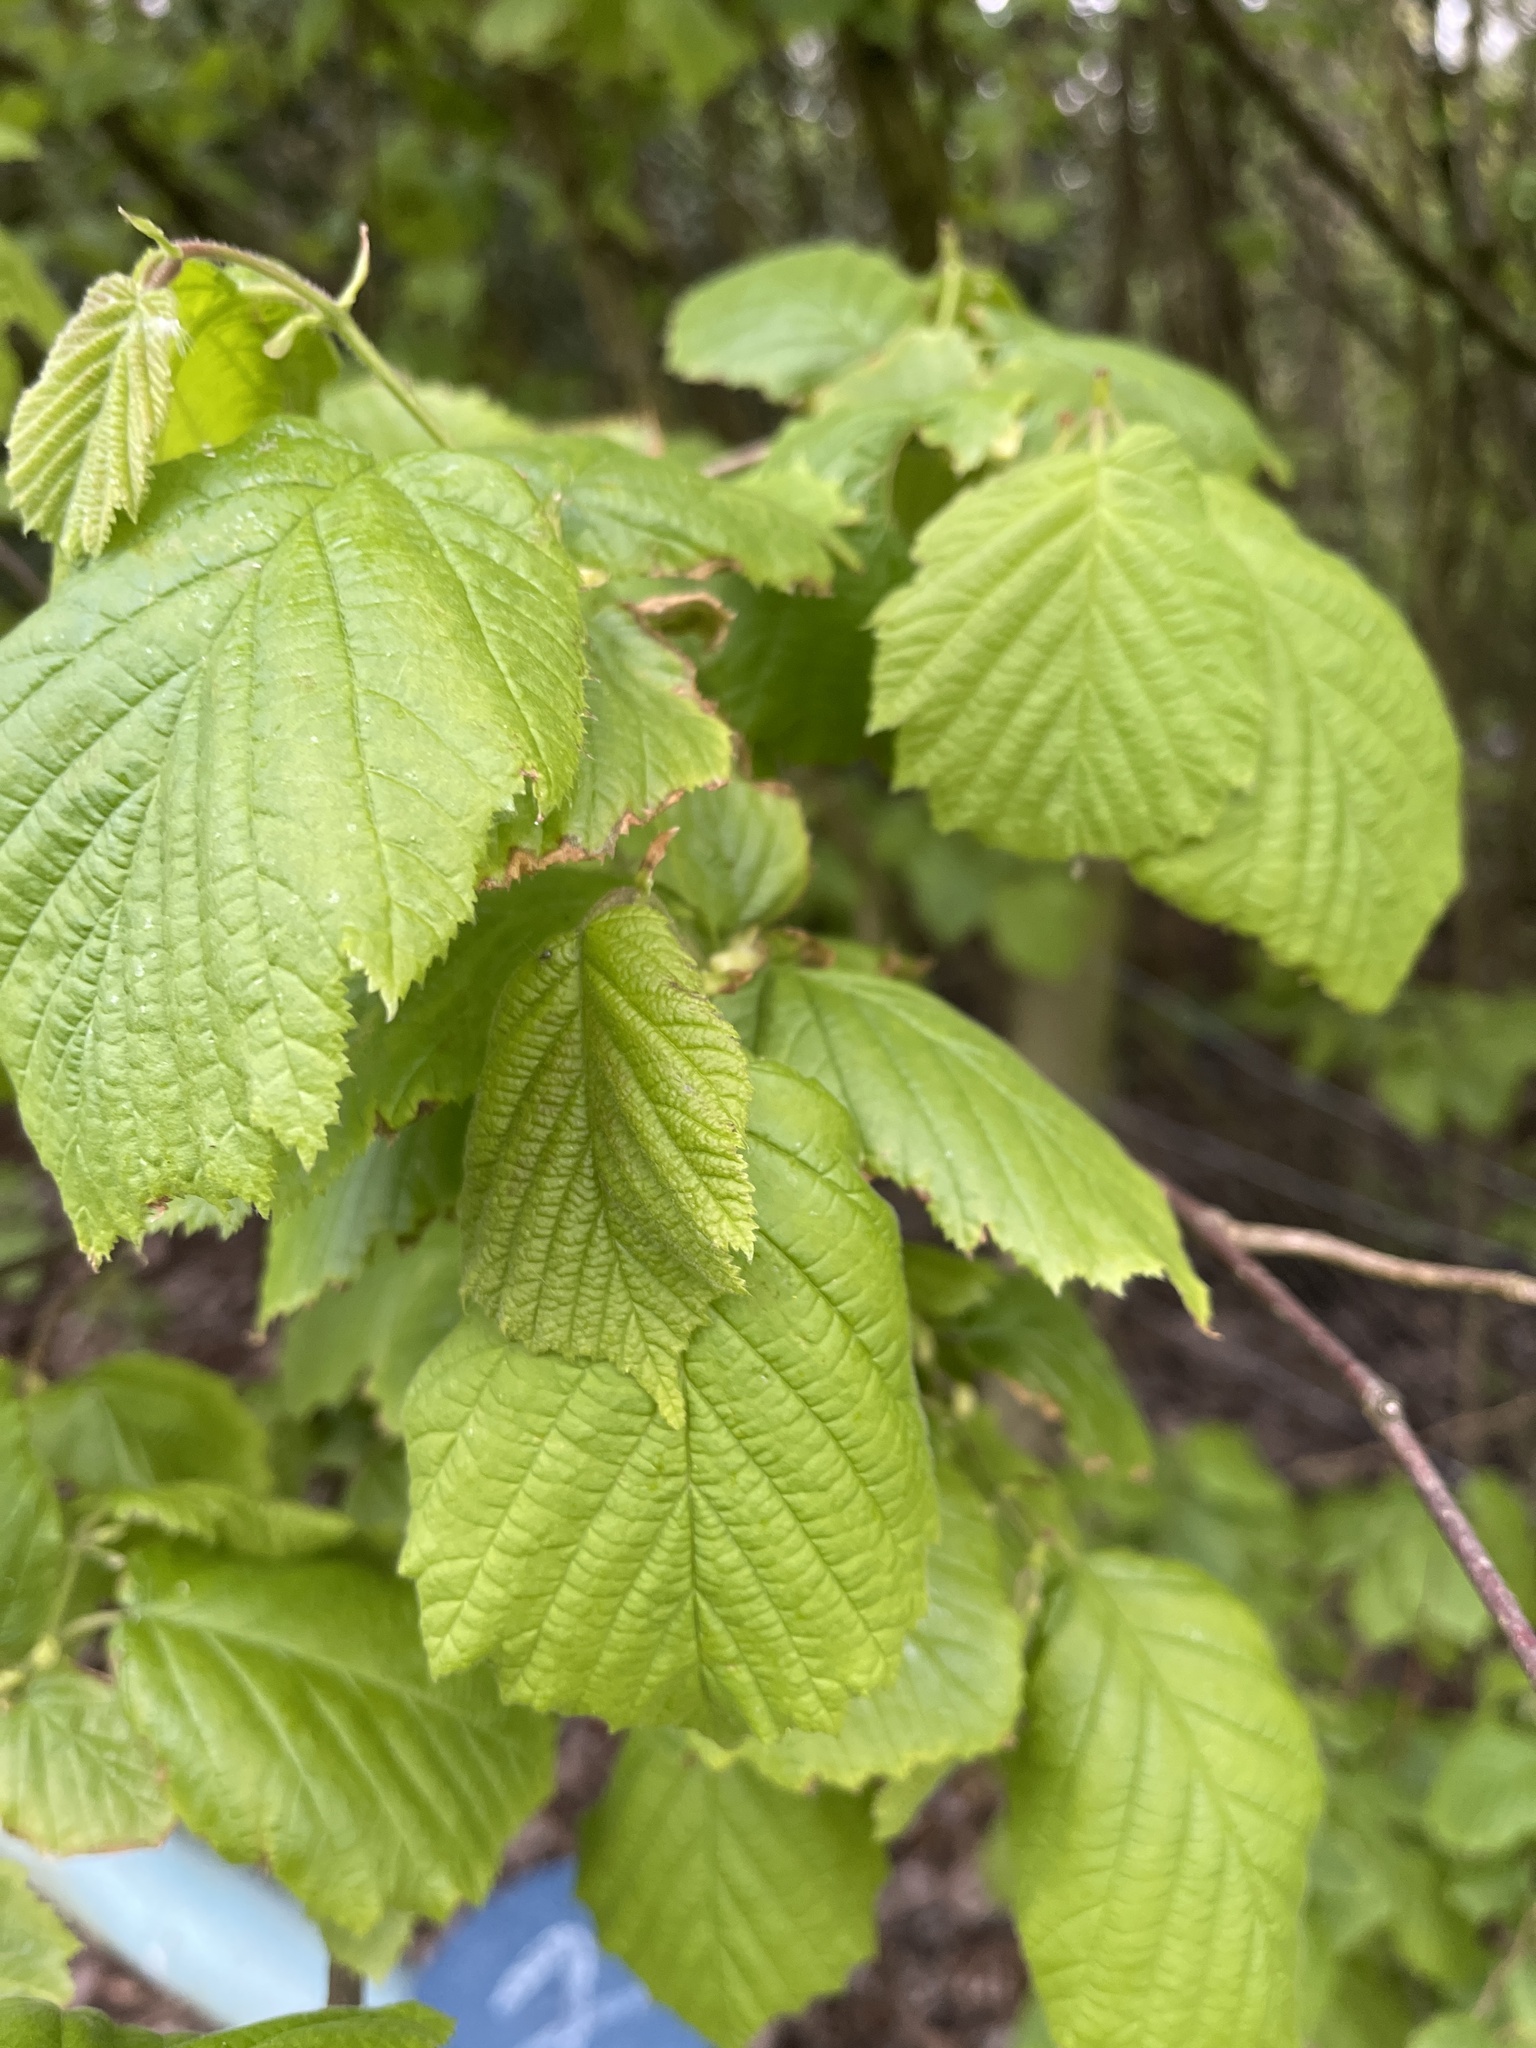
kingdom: Plantae
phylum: Tracheophyta
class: Magnoliopsida
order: Fagales
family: Betulaceae
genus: Corylus
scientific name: Corylus avellana
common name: European hazel
